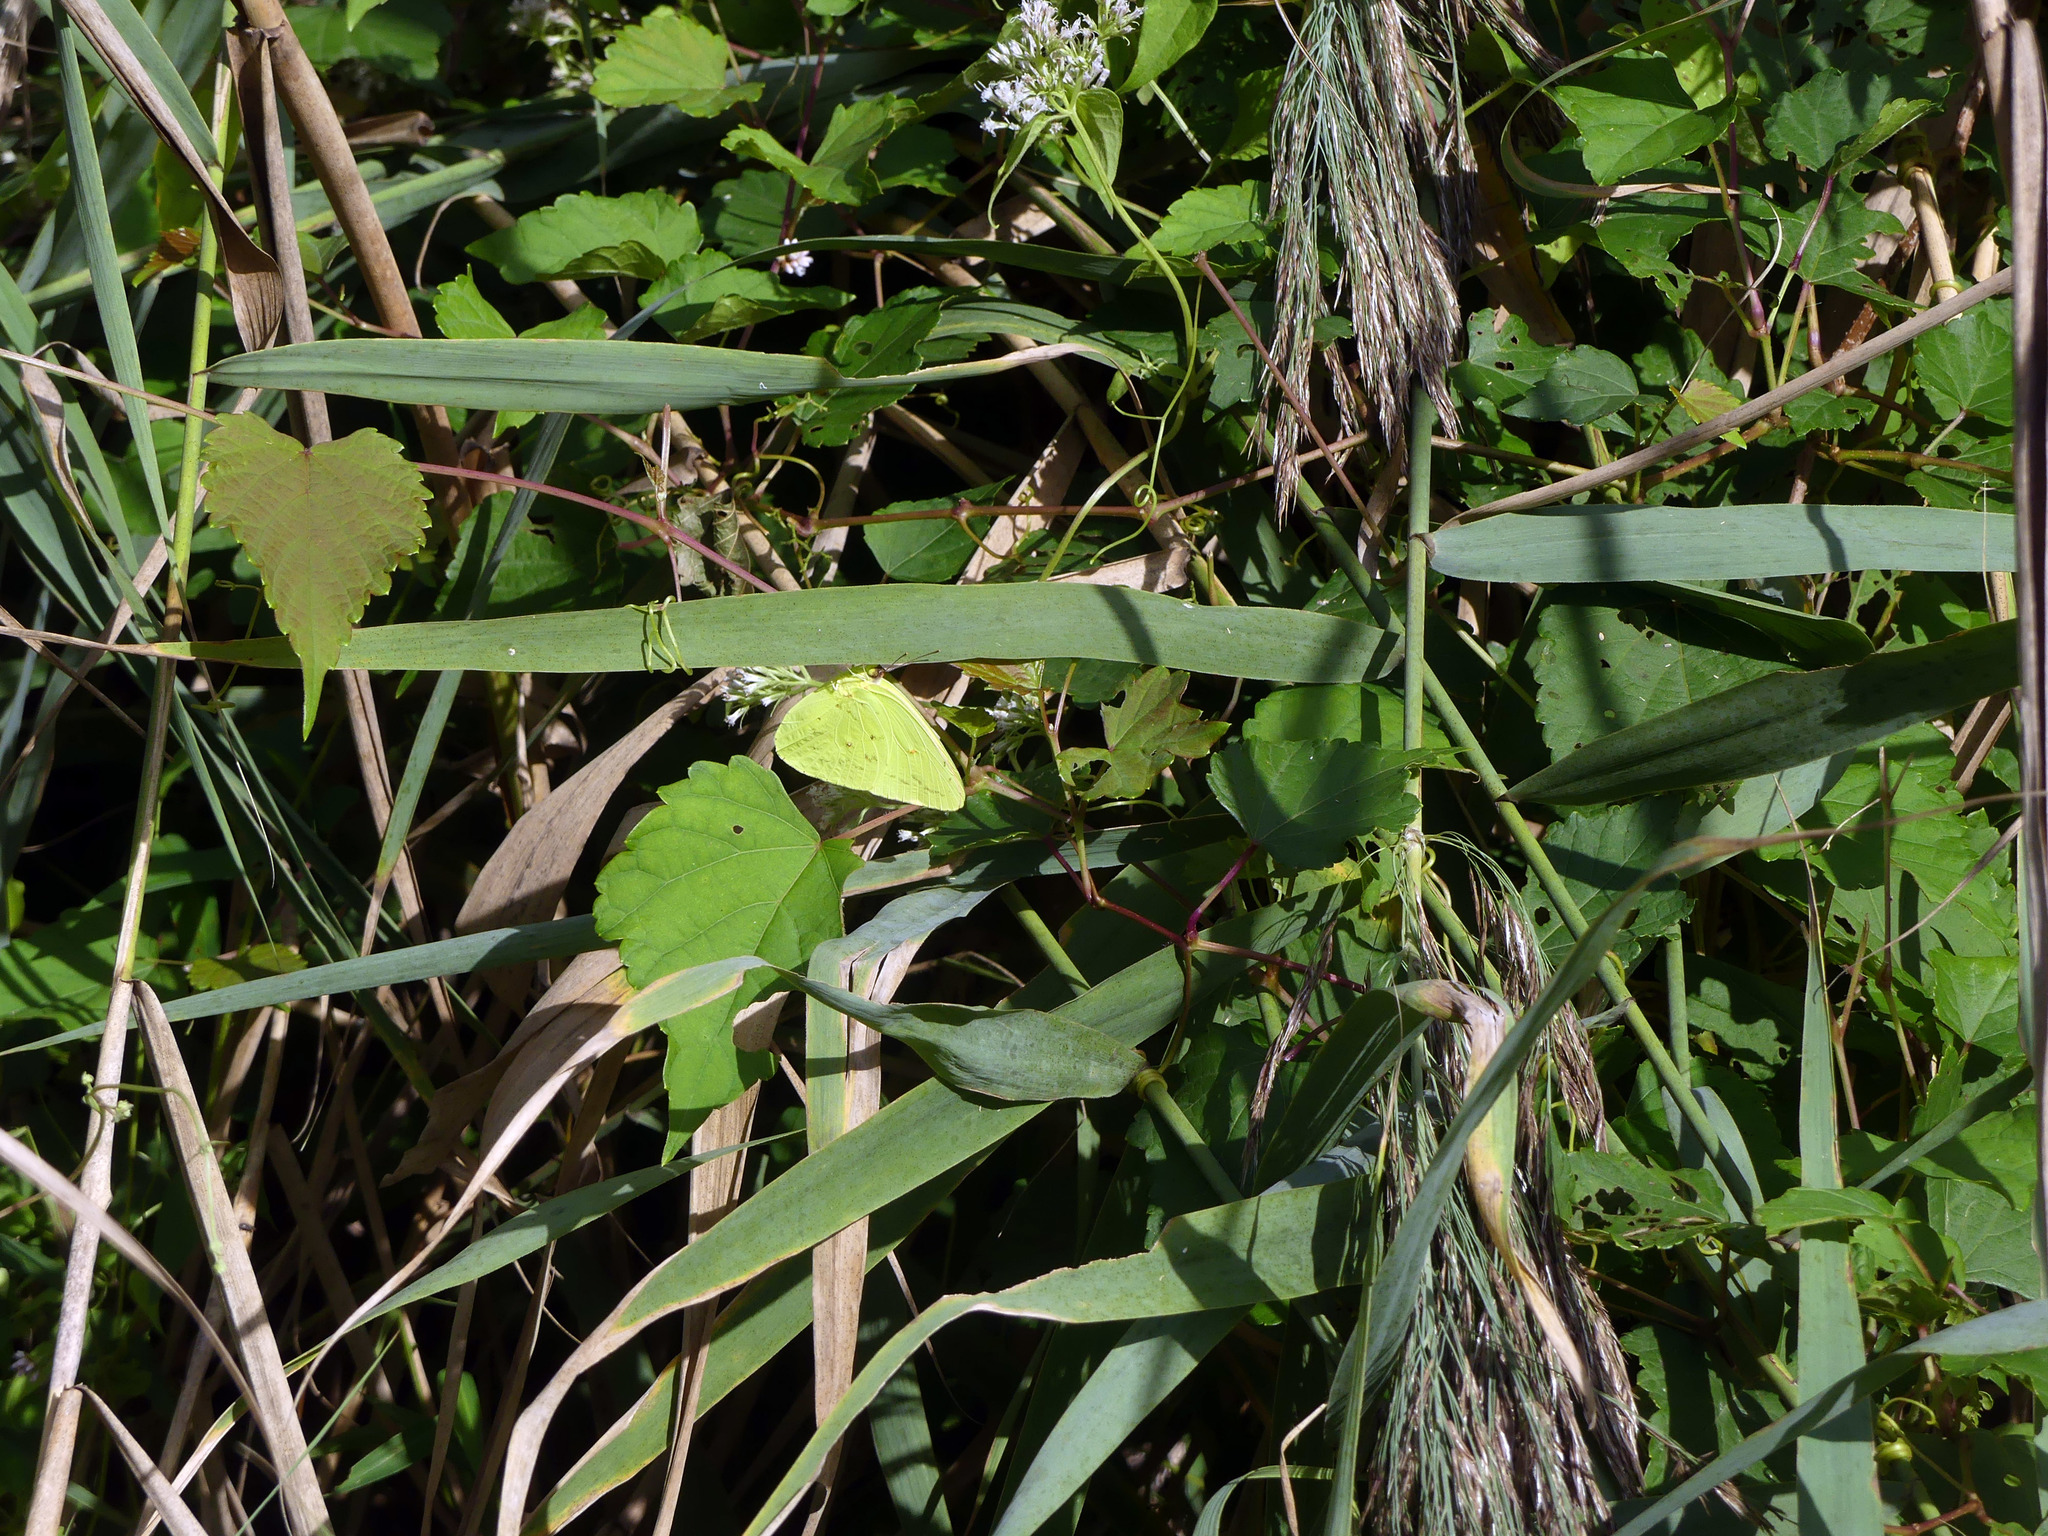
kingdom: Animalia
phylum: Arthropoda
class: Insecta
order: Lepidoptera
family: Pieridae
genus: Phoebis
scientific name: Phoebis sennae
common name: Cloudless sulphur
